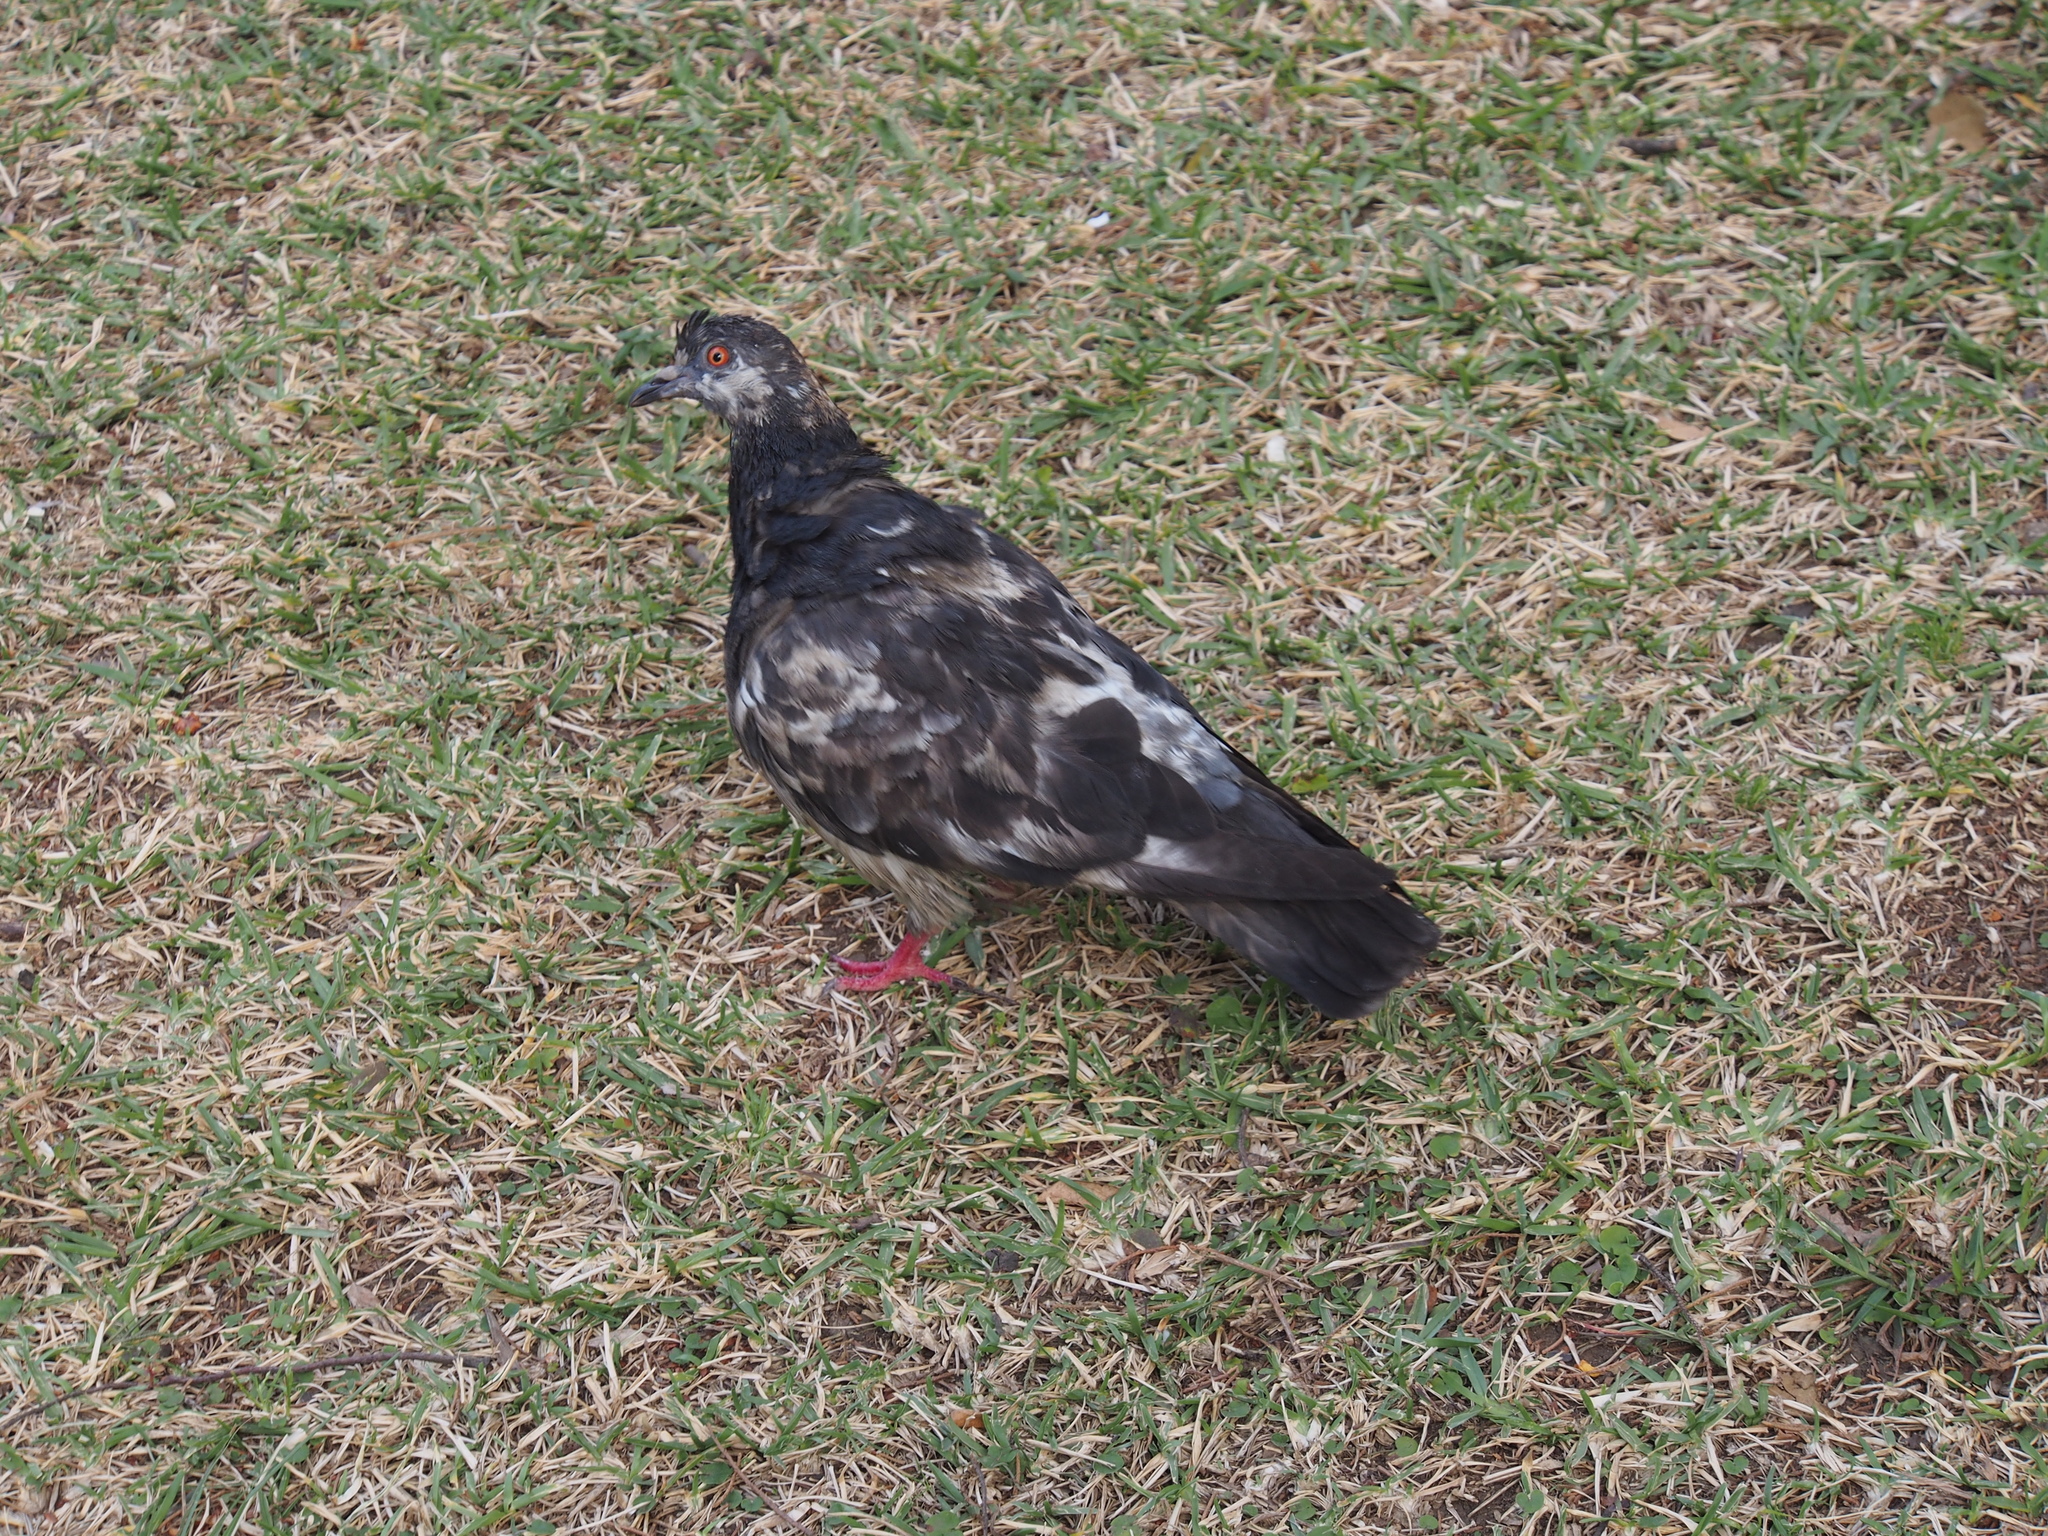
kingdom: Animalia
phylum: Chordata
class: Aves
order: Columbiformes
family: Columbidae
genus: Columba
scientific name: Columba livia
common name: Rock pigeon
